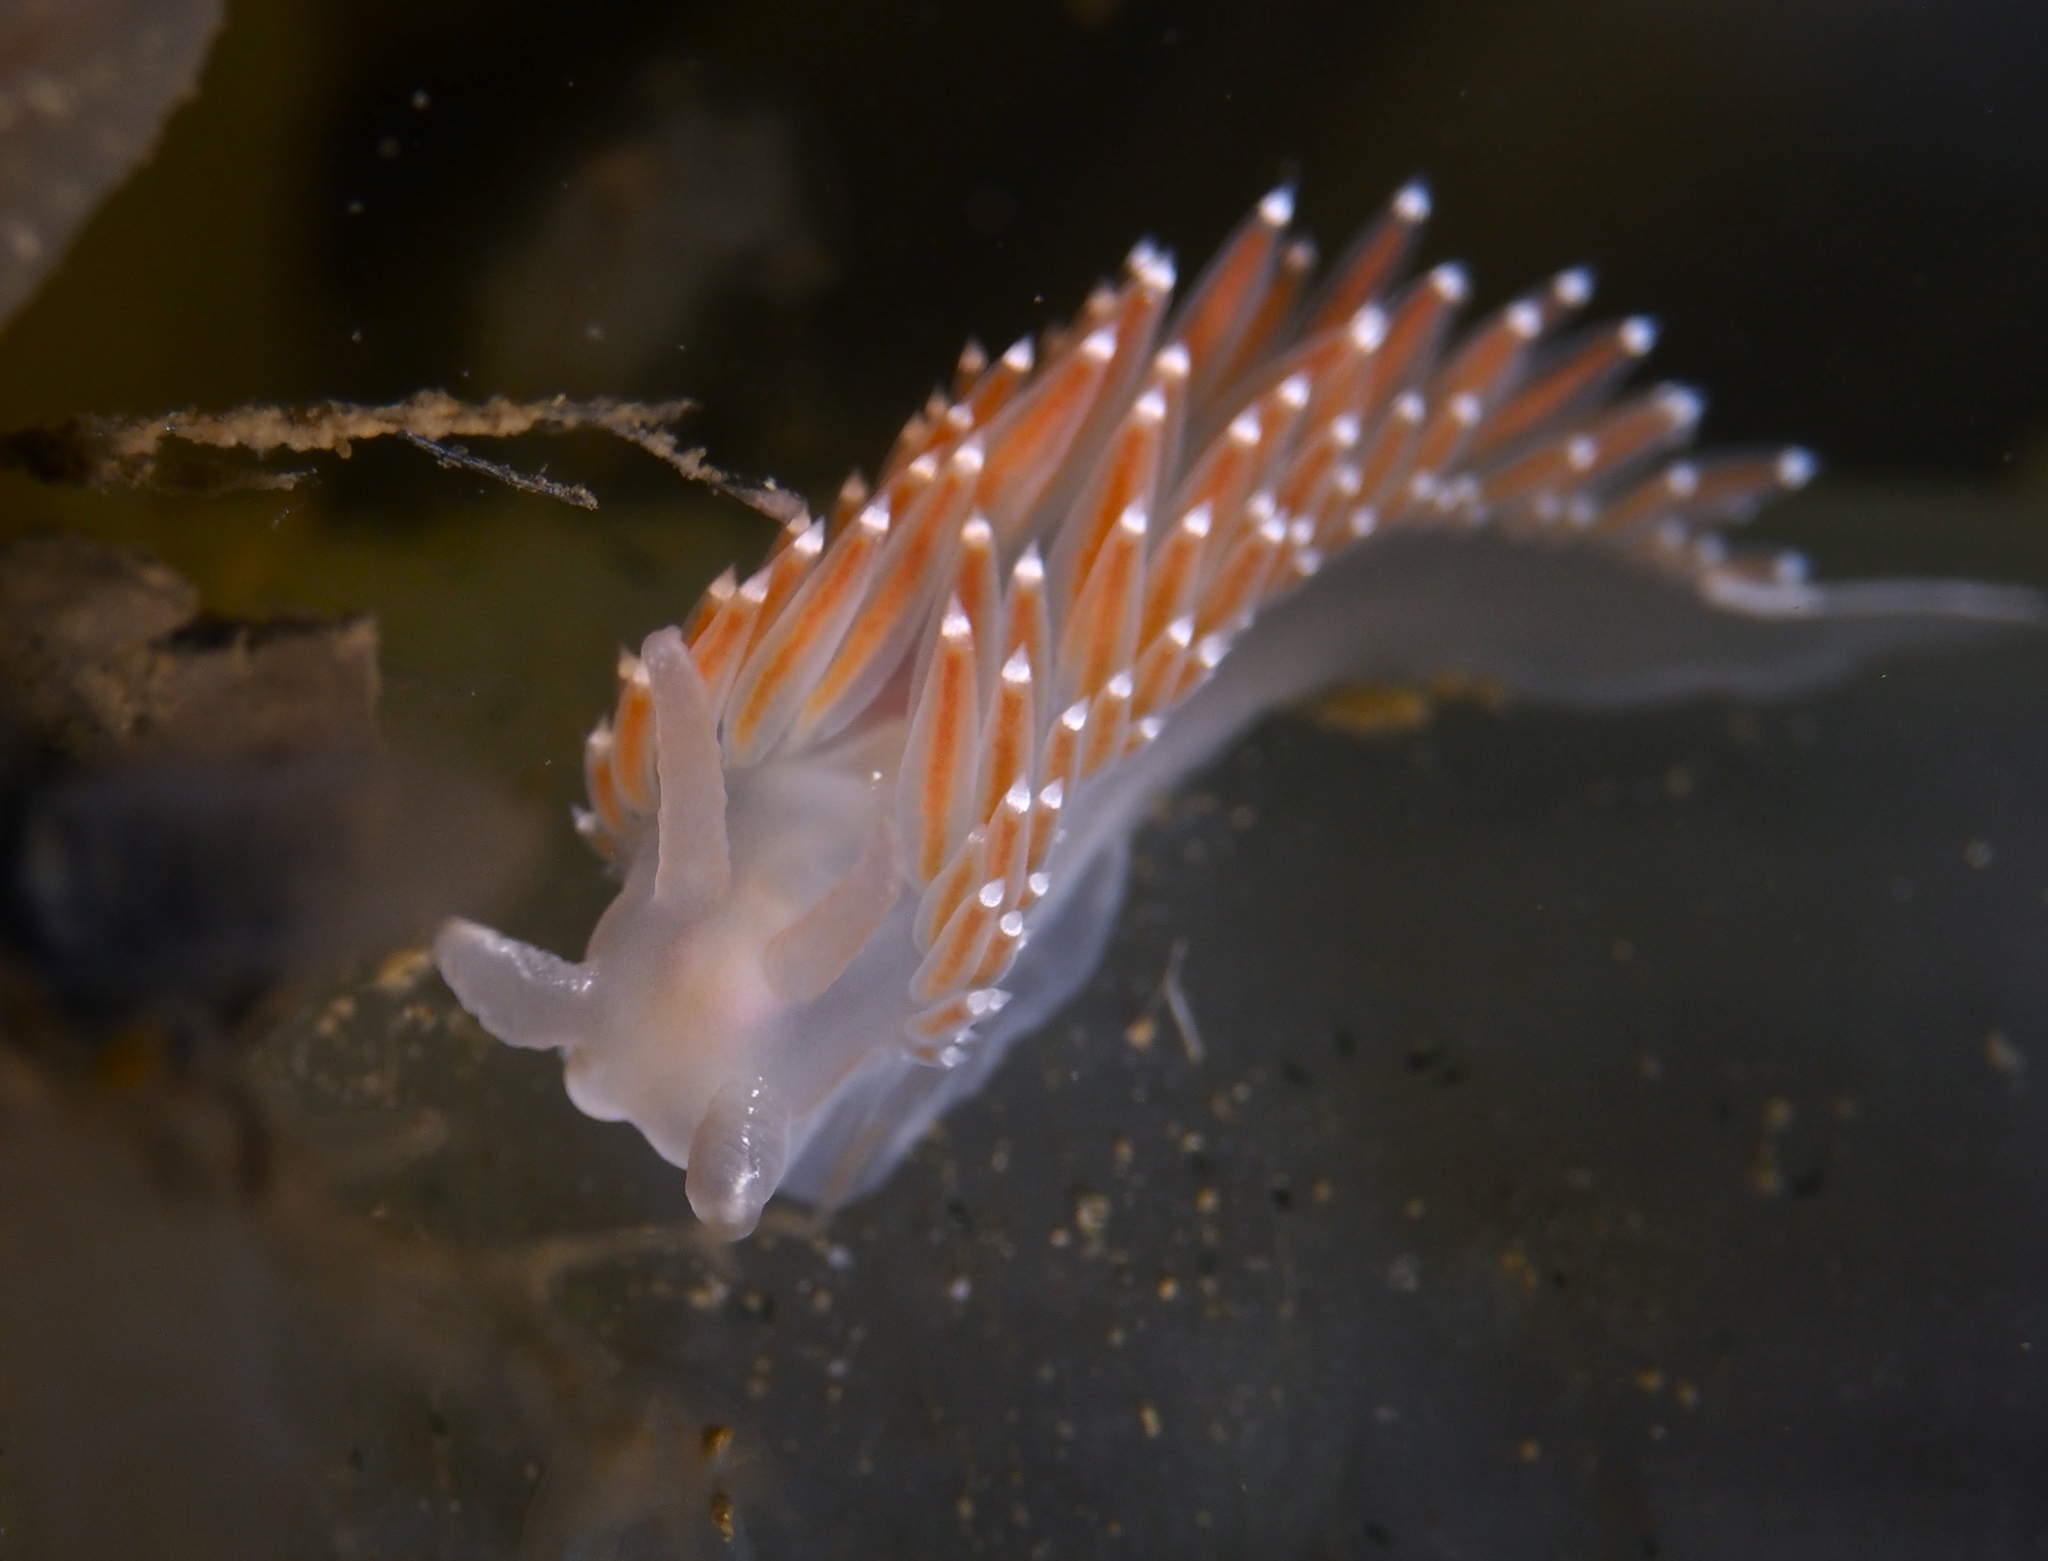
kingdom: Animalia
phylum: Mollusca
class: Gastropoda
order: Nudibranchia
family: Coryphellidae
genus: Coryphella
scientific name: Coryphella verrucosa
